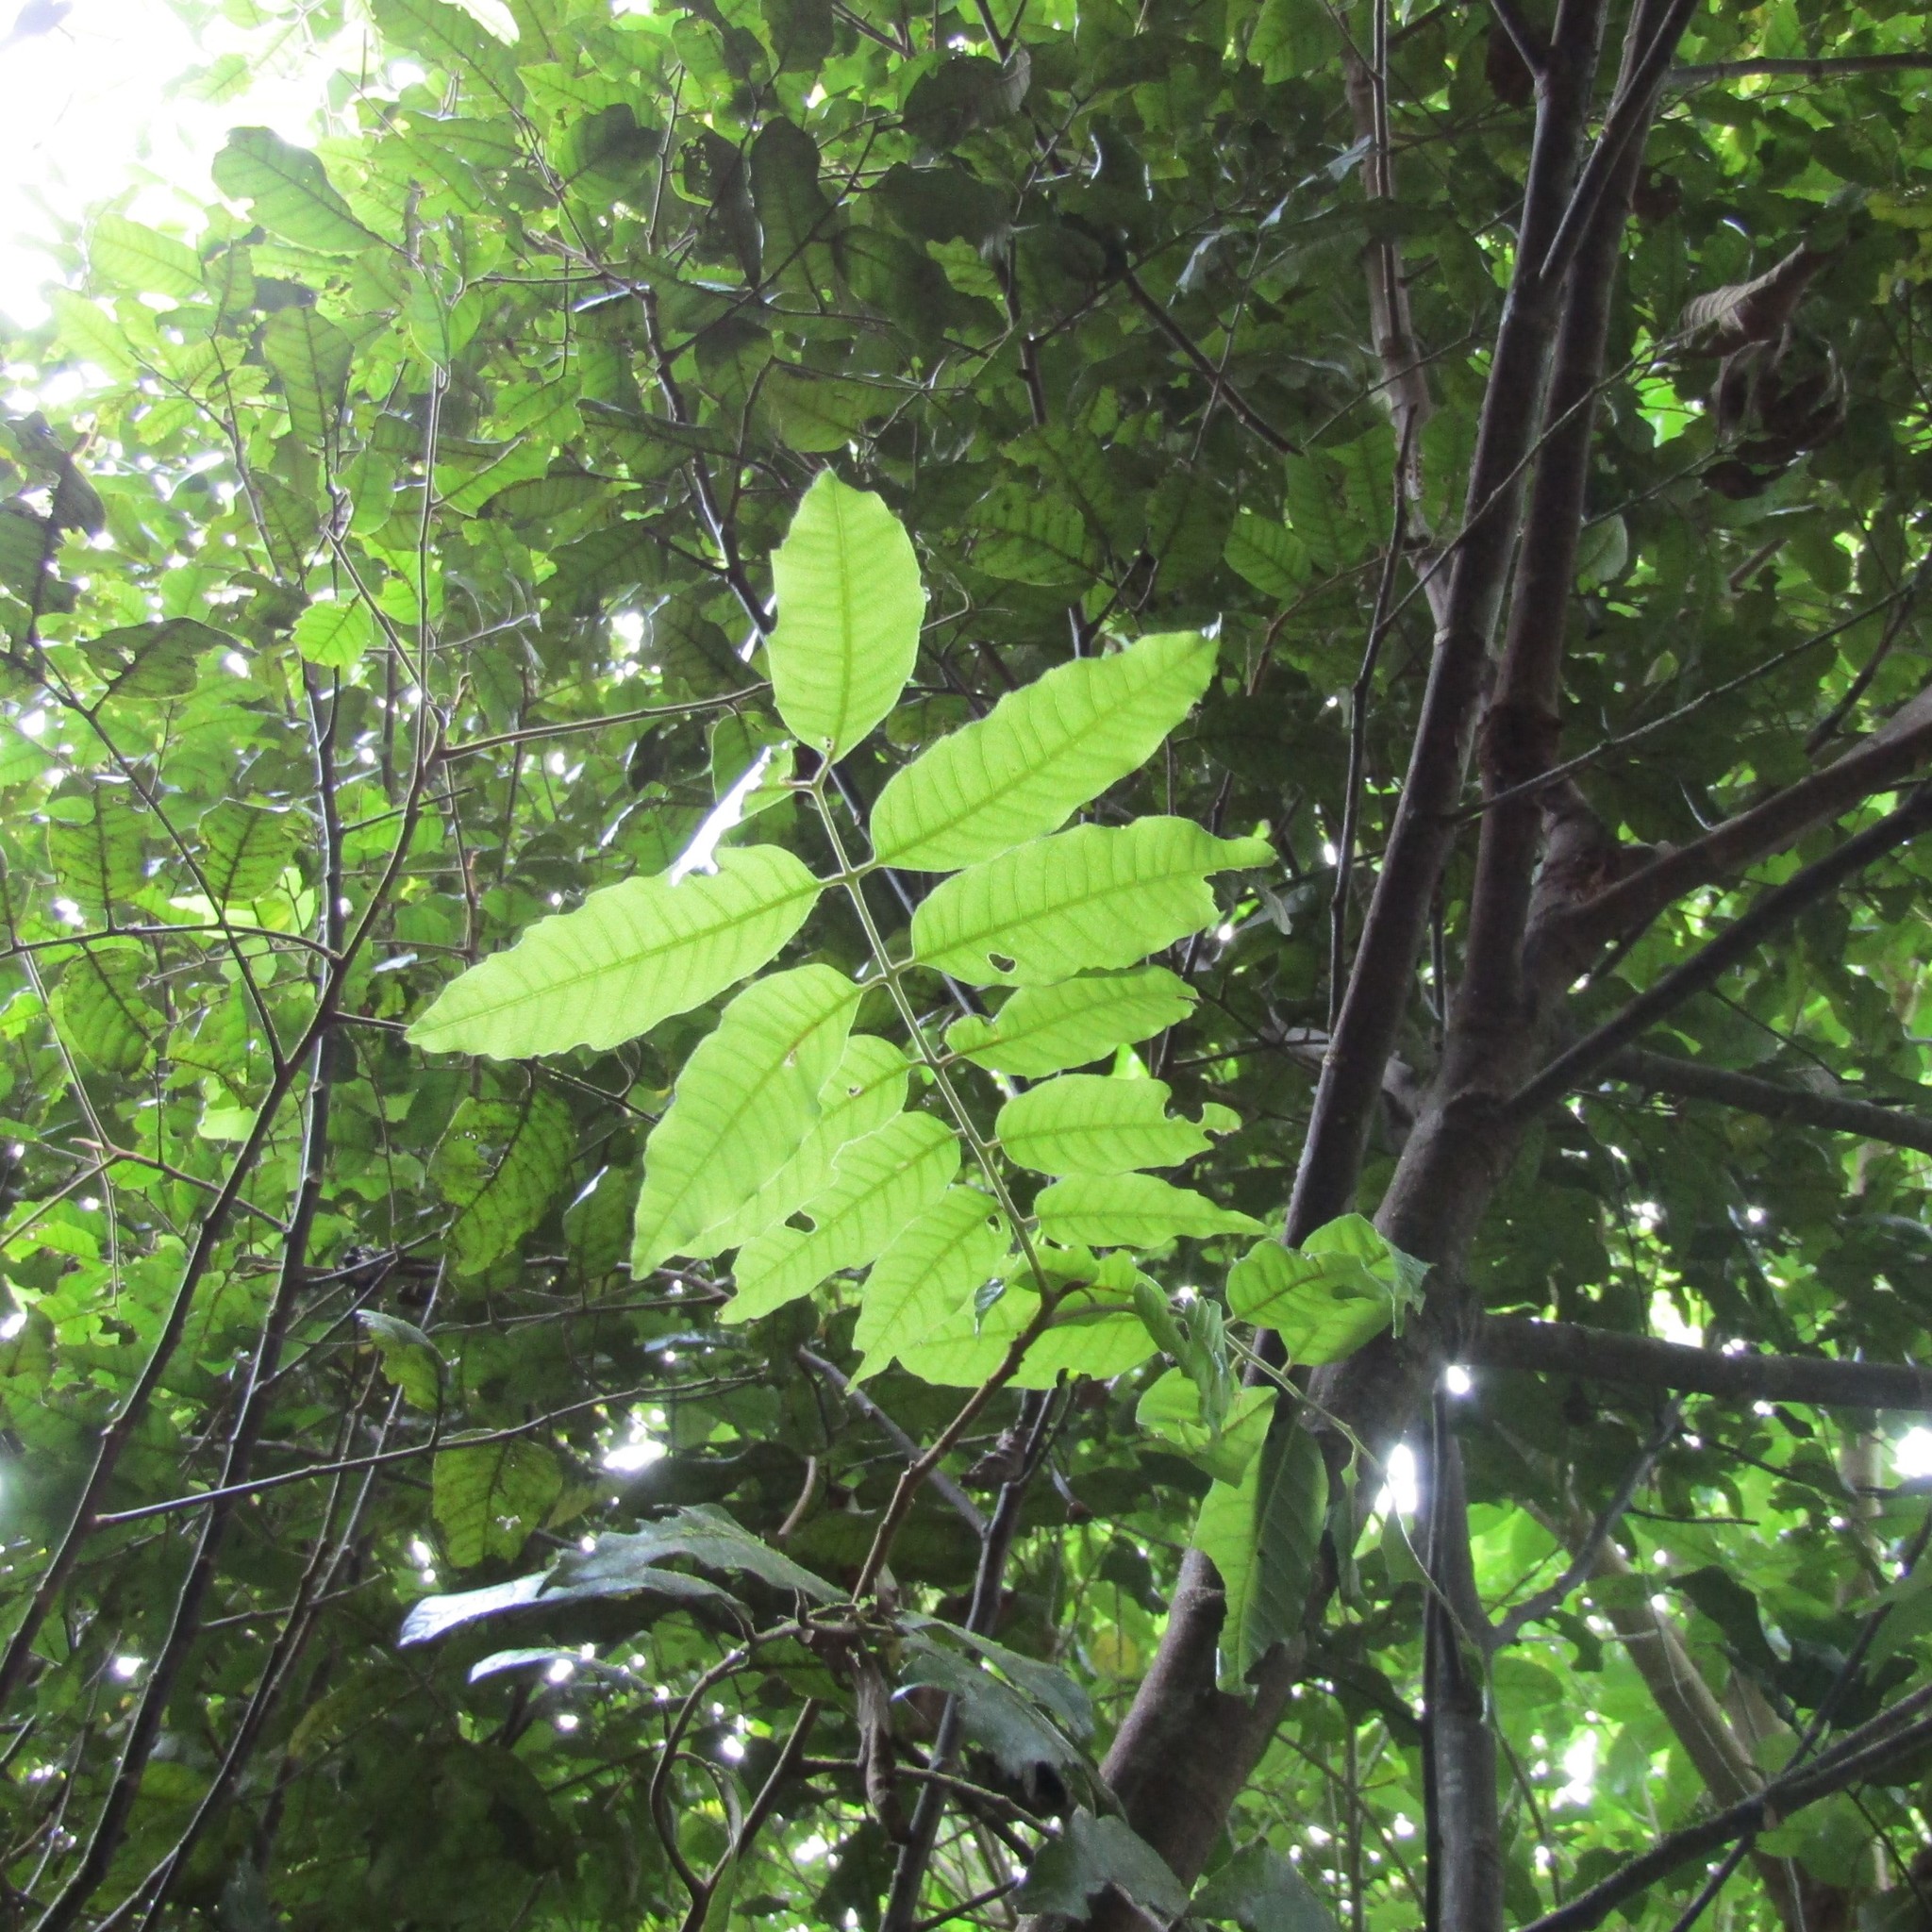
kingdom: Animalia
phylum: Arthropoda
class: Insecta
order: Lepidoptera
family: Hepialidae
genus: Aenetus
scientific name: Aenetus virescens
